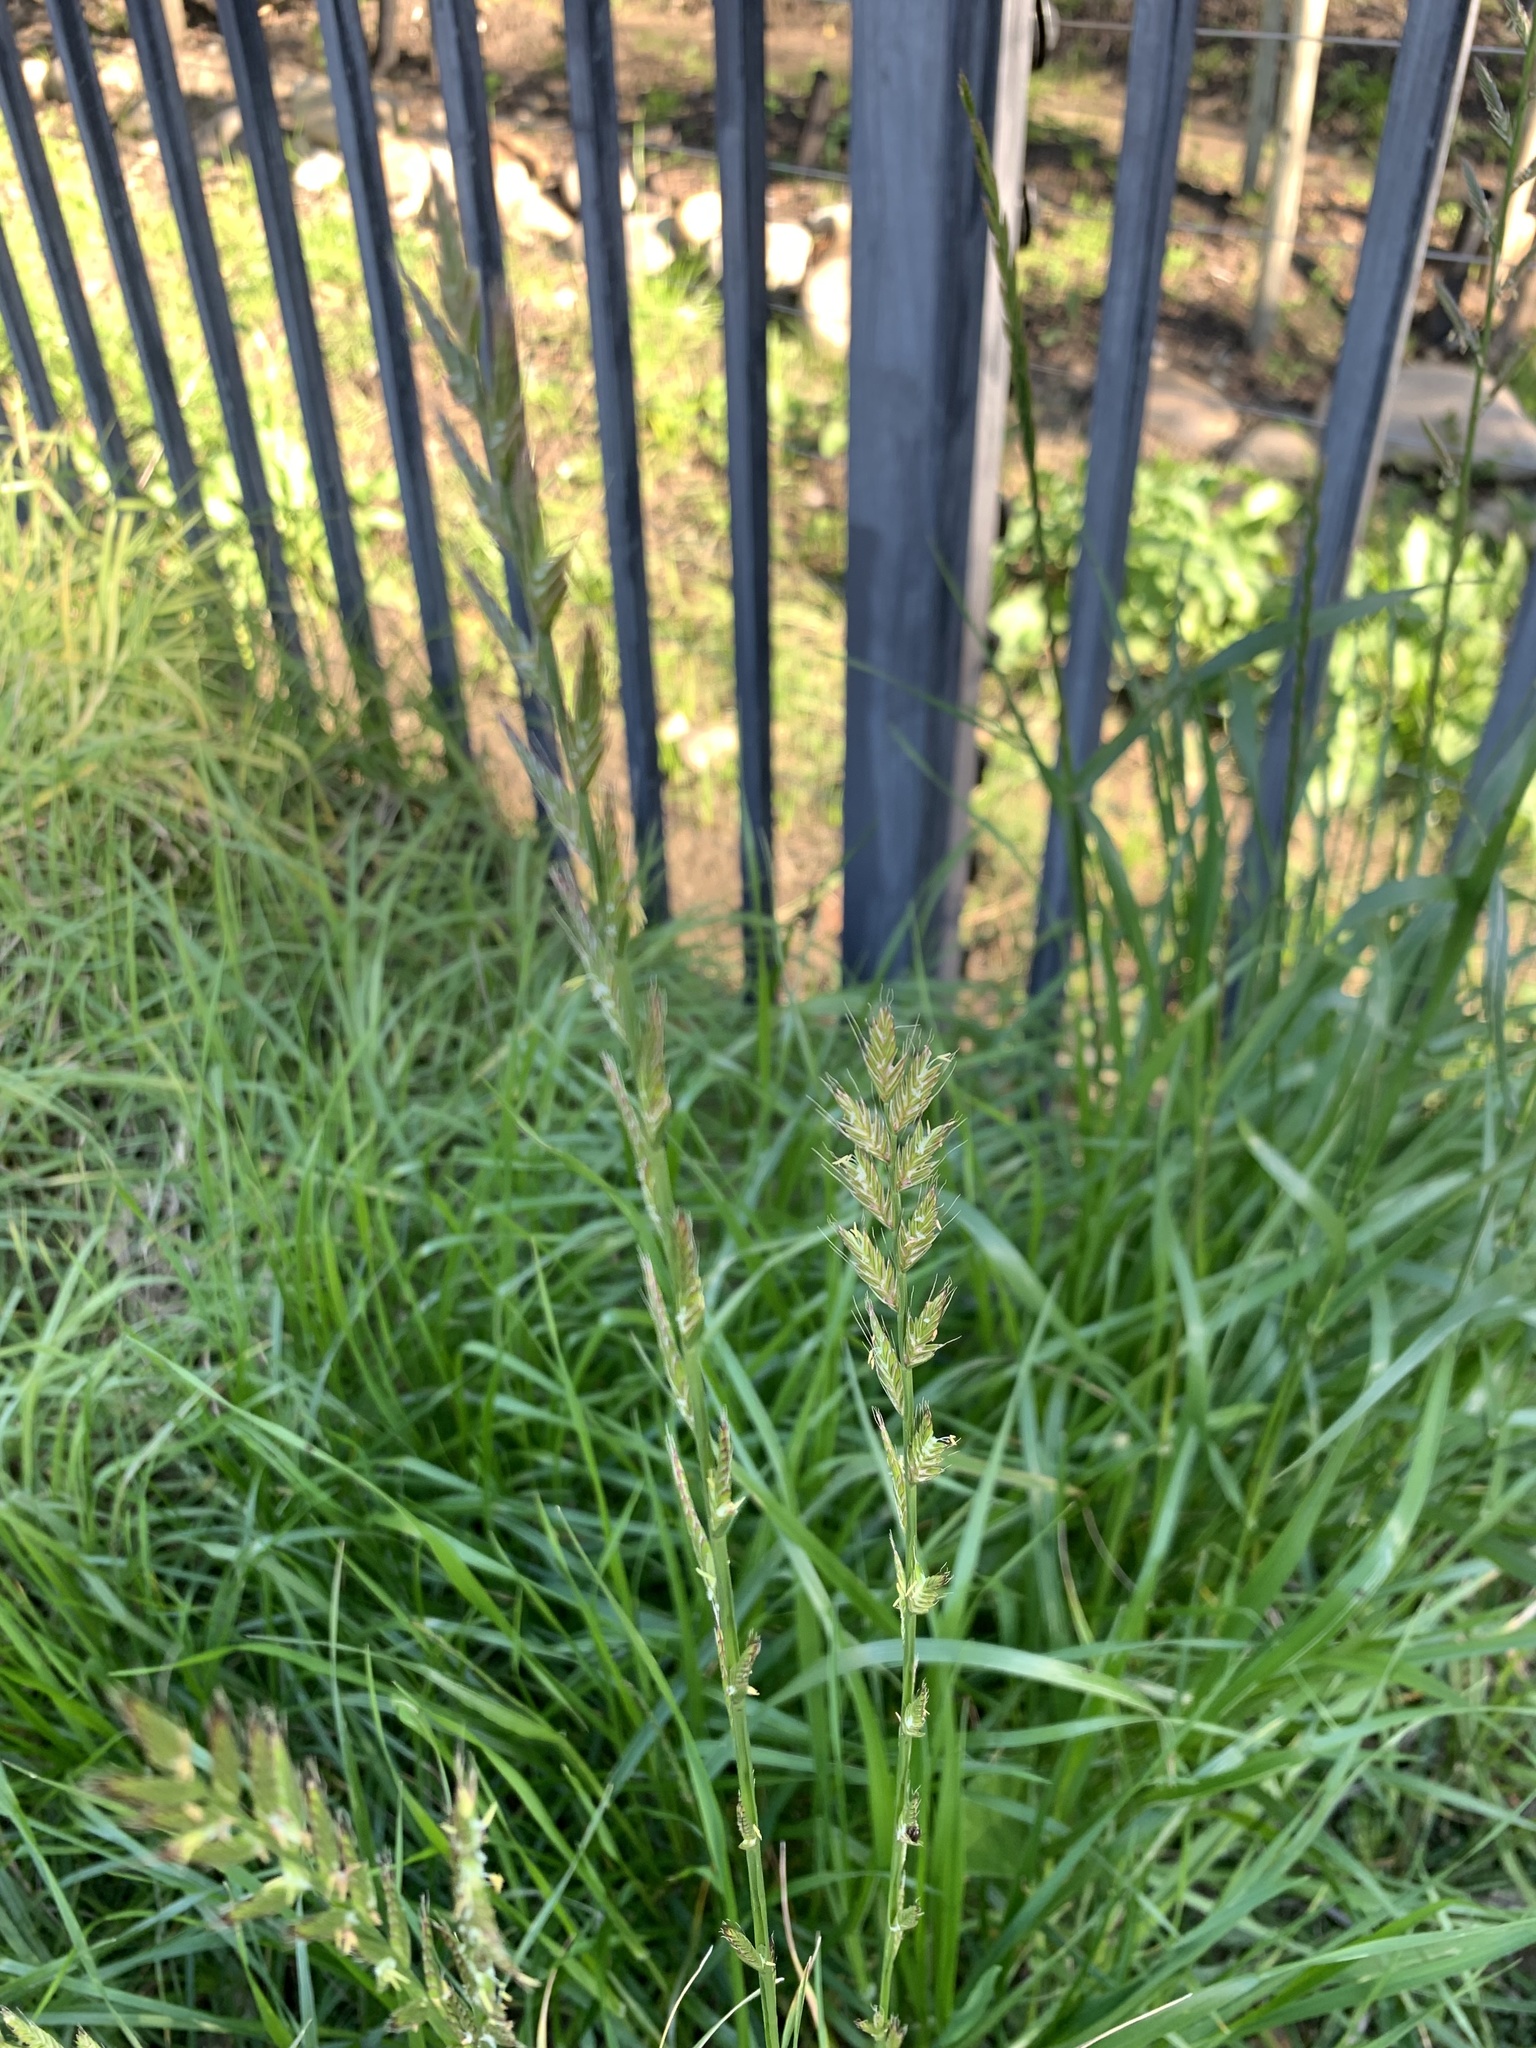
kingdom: Plantae
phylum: Tracheophyta
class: Liliopsida
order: Poales
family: Poaceae
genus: Lolium
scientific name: Lolium multiflorum
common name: Annual ryegrass
